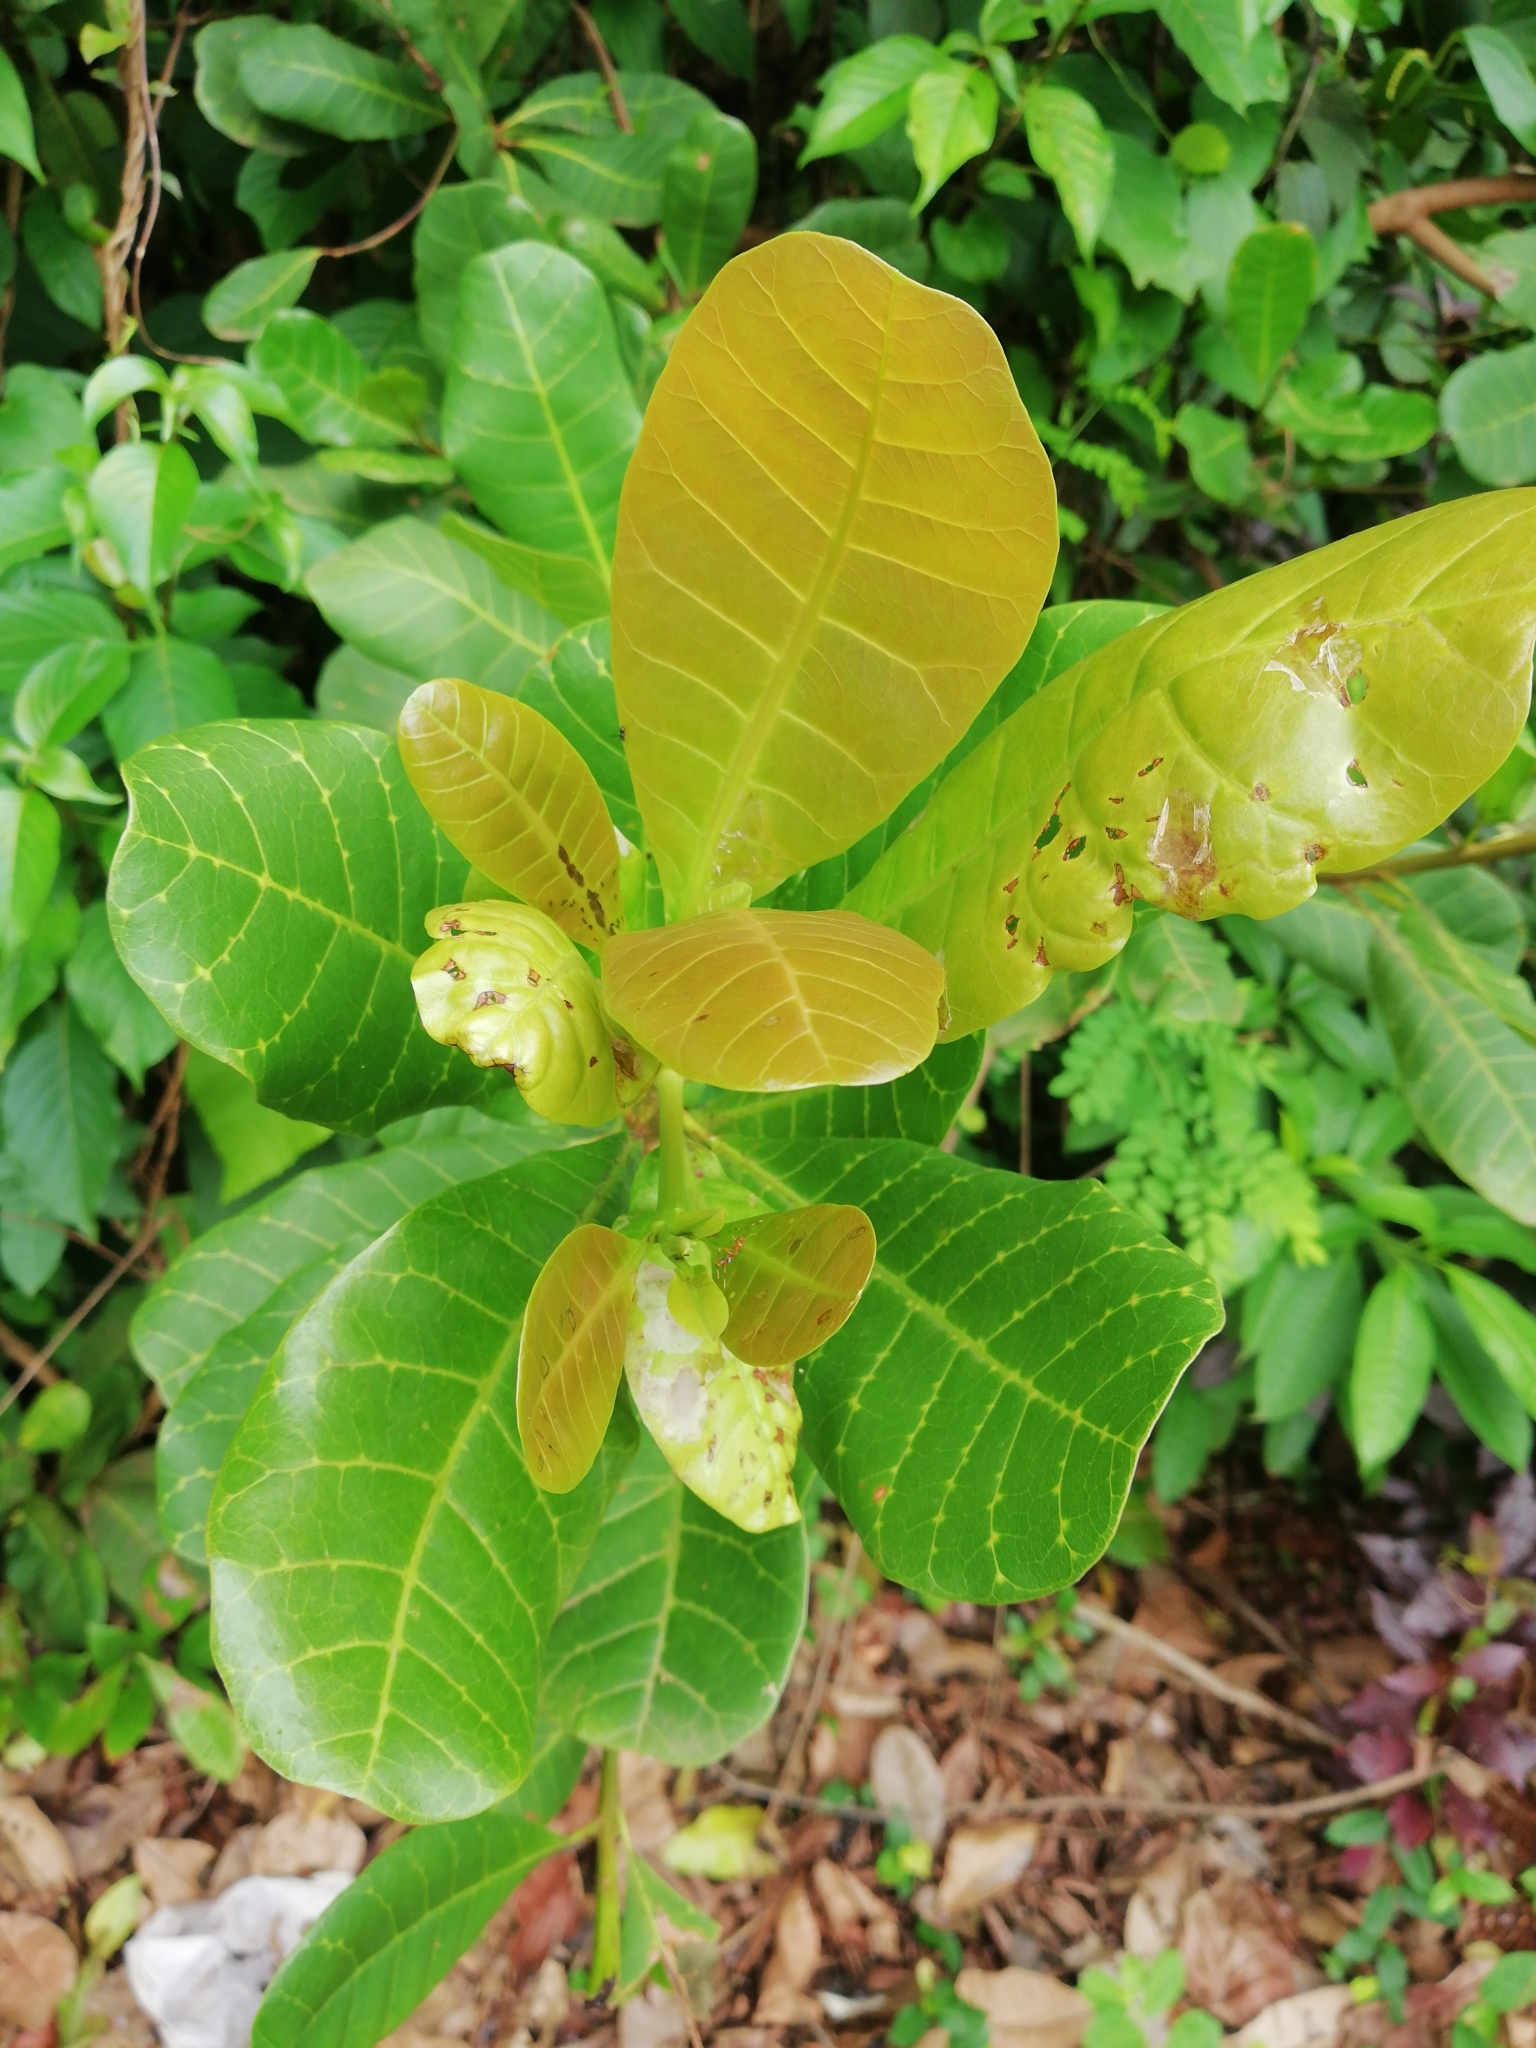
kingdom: Plantae
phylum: Tracheophyta
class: Magnoliopsida
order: Sapindales
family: Anacardiaceae
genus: Anacardium
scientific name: Anacardium occidentale
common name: Cashew
